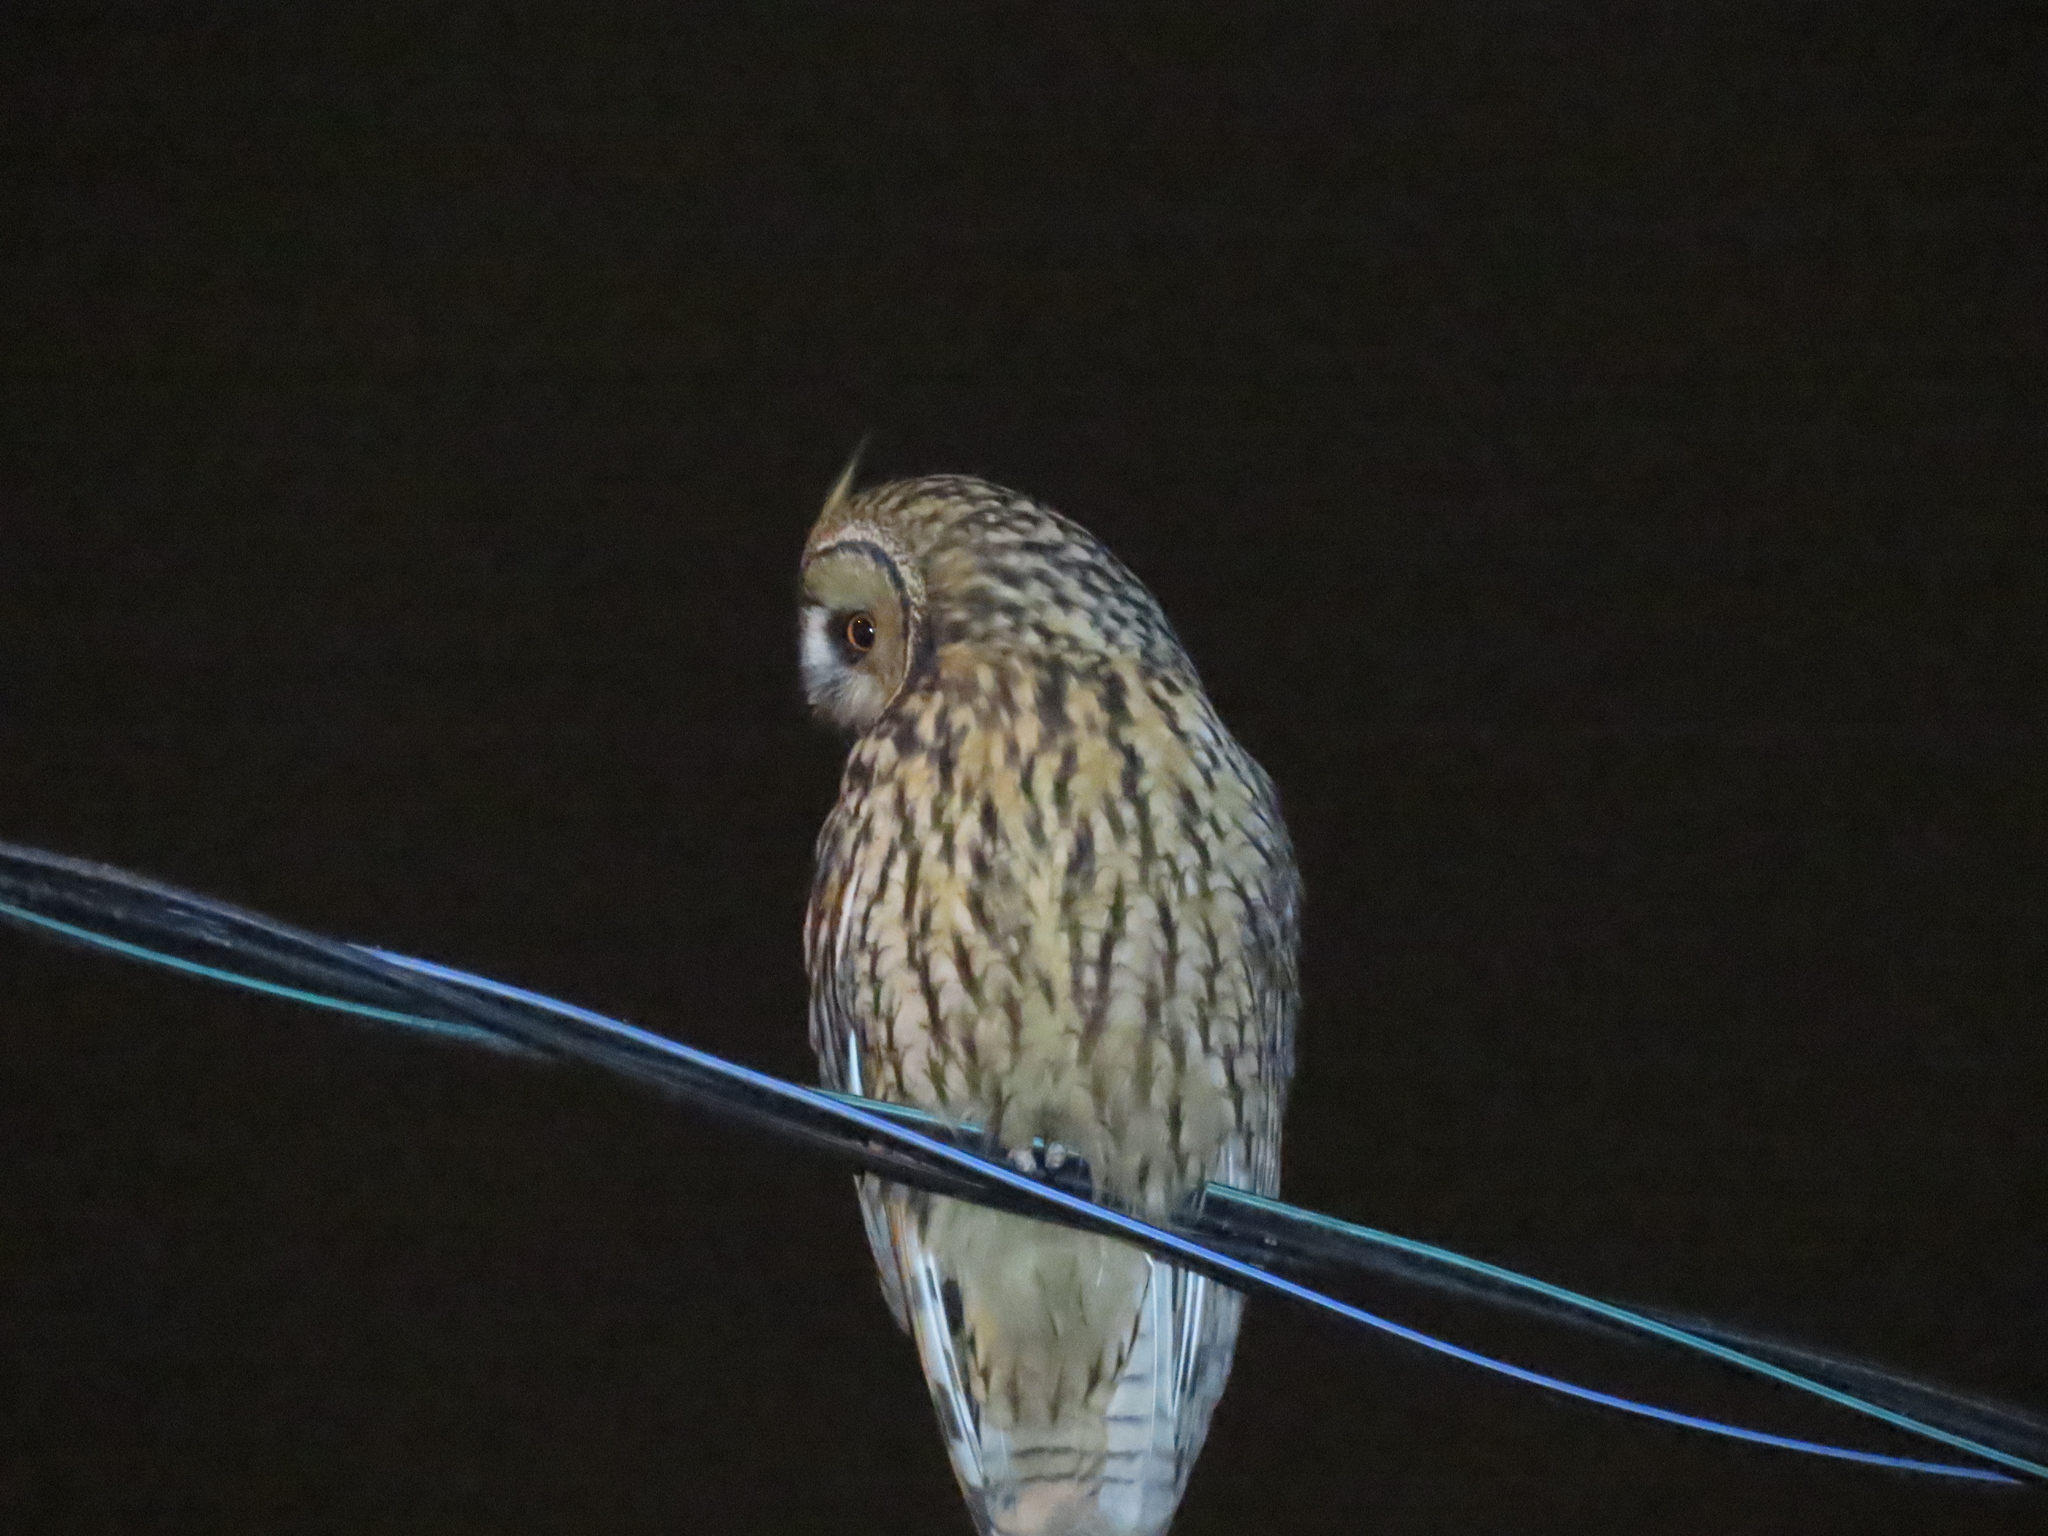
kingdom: Animalia
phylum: Chordata
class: Aves
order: Strigiformes
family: Strigidae
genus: Asio
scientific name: Asio otus
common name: Long-eared owl
